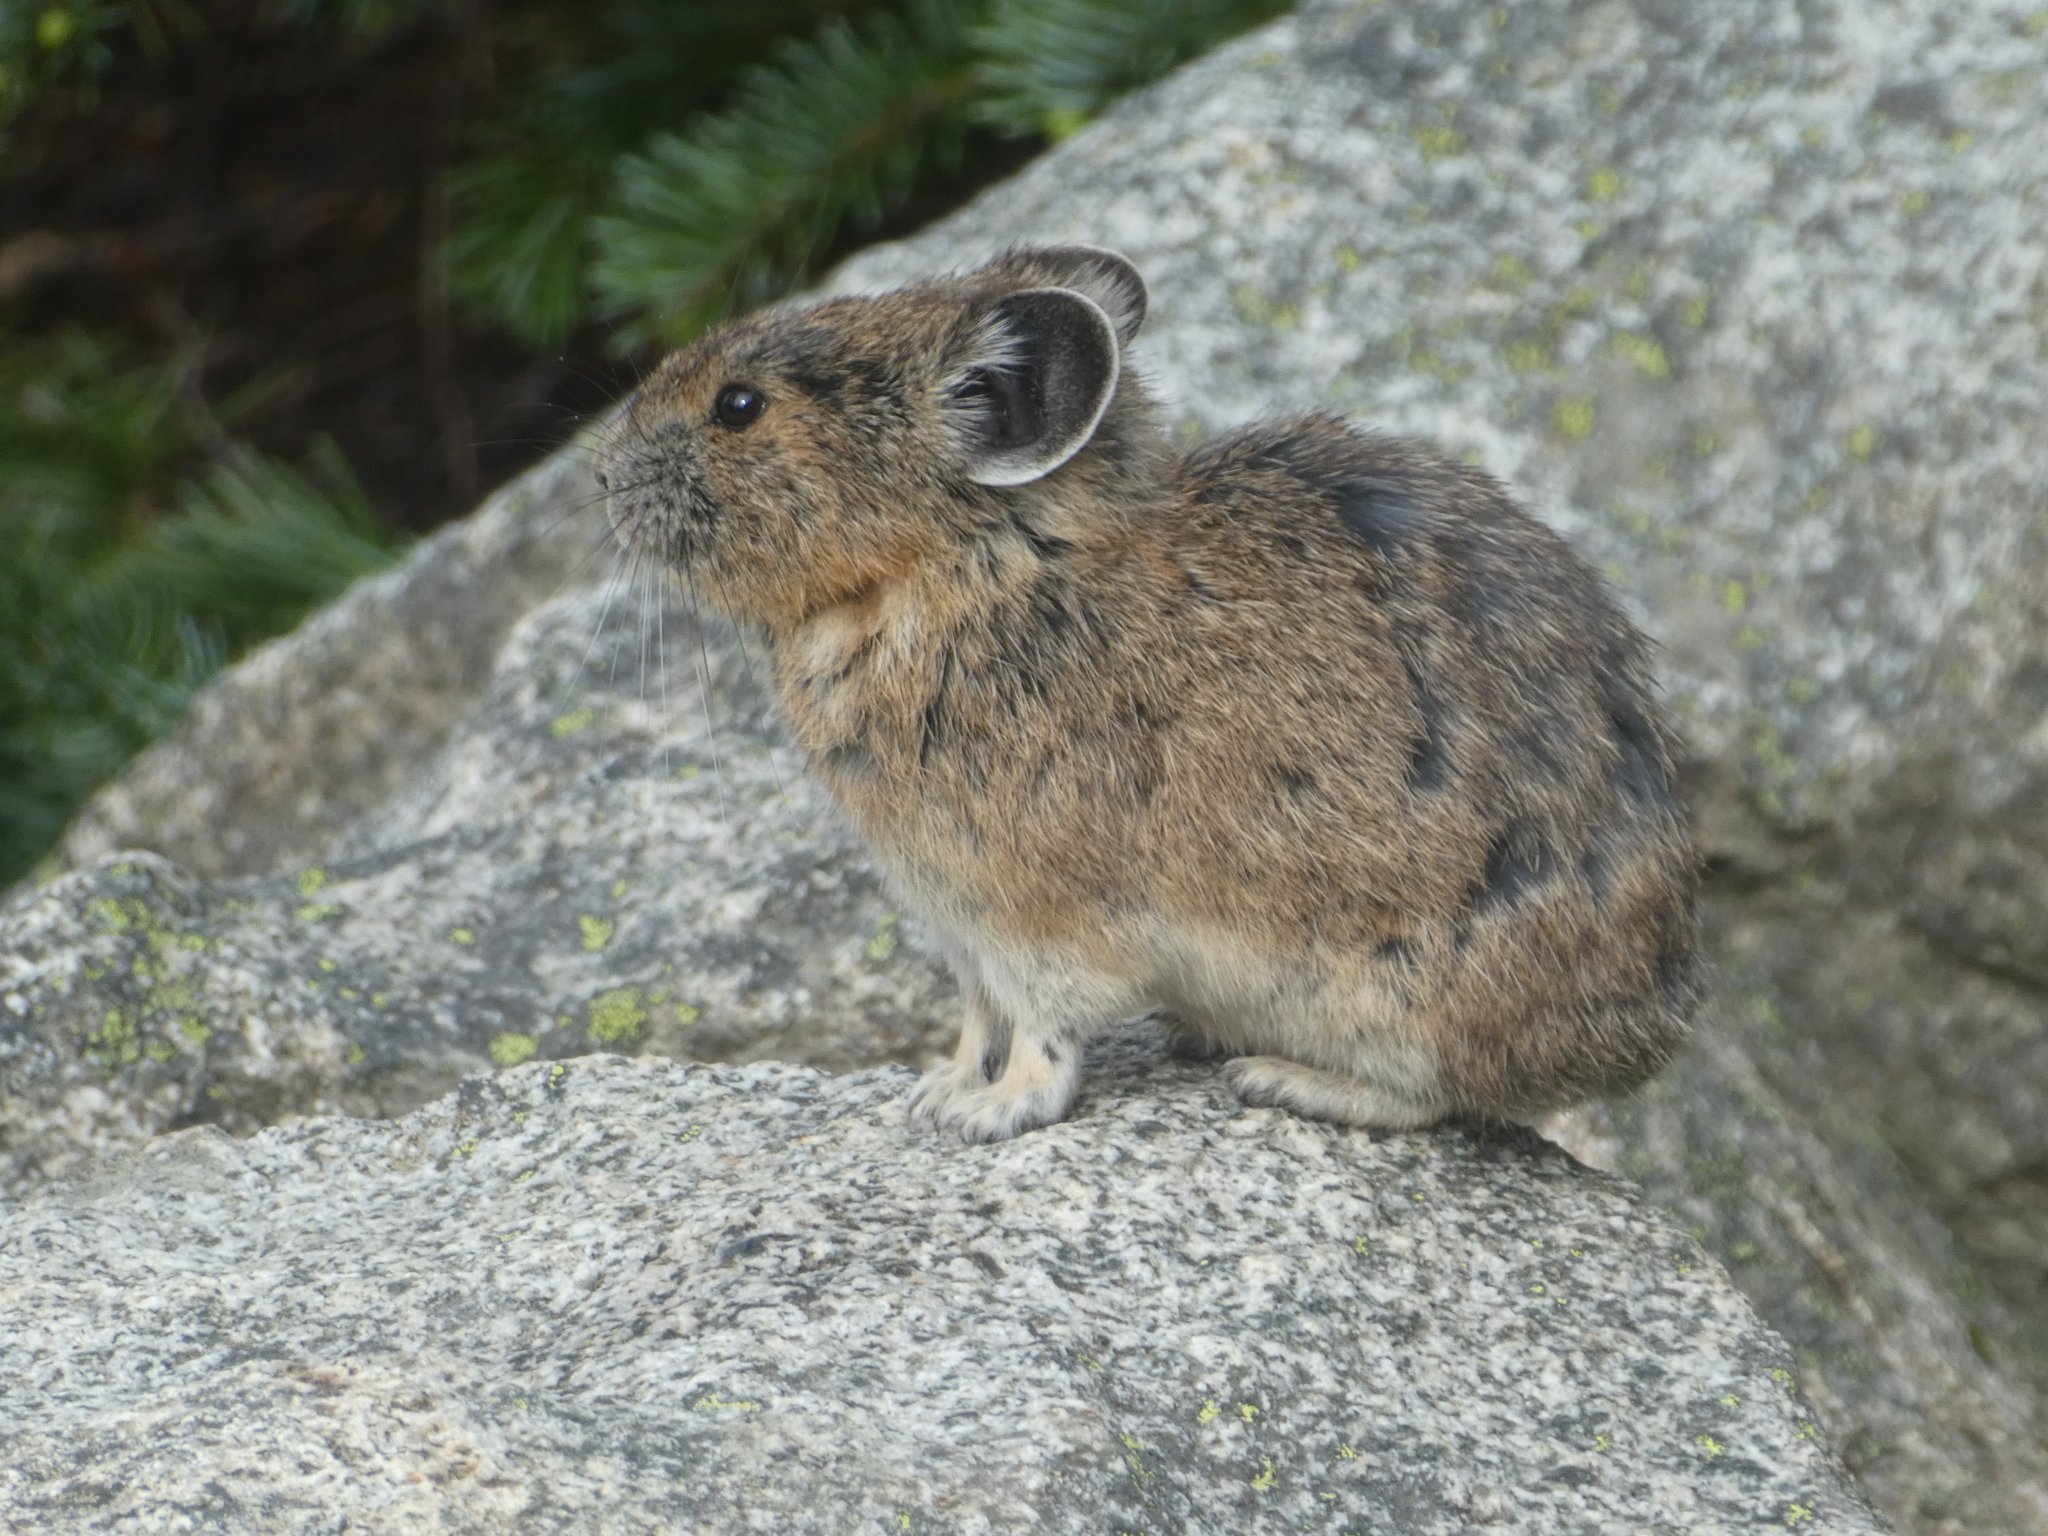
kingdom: Animalia
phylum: Chordata
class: Mammalia
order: Lagomorpha
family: Ochotonidae
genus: Ochotona
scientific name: Ochotona princeps
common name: American pika
